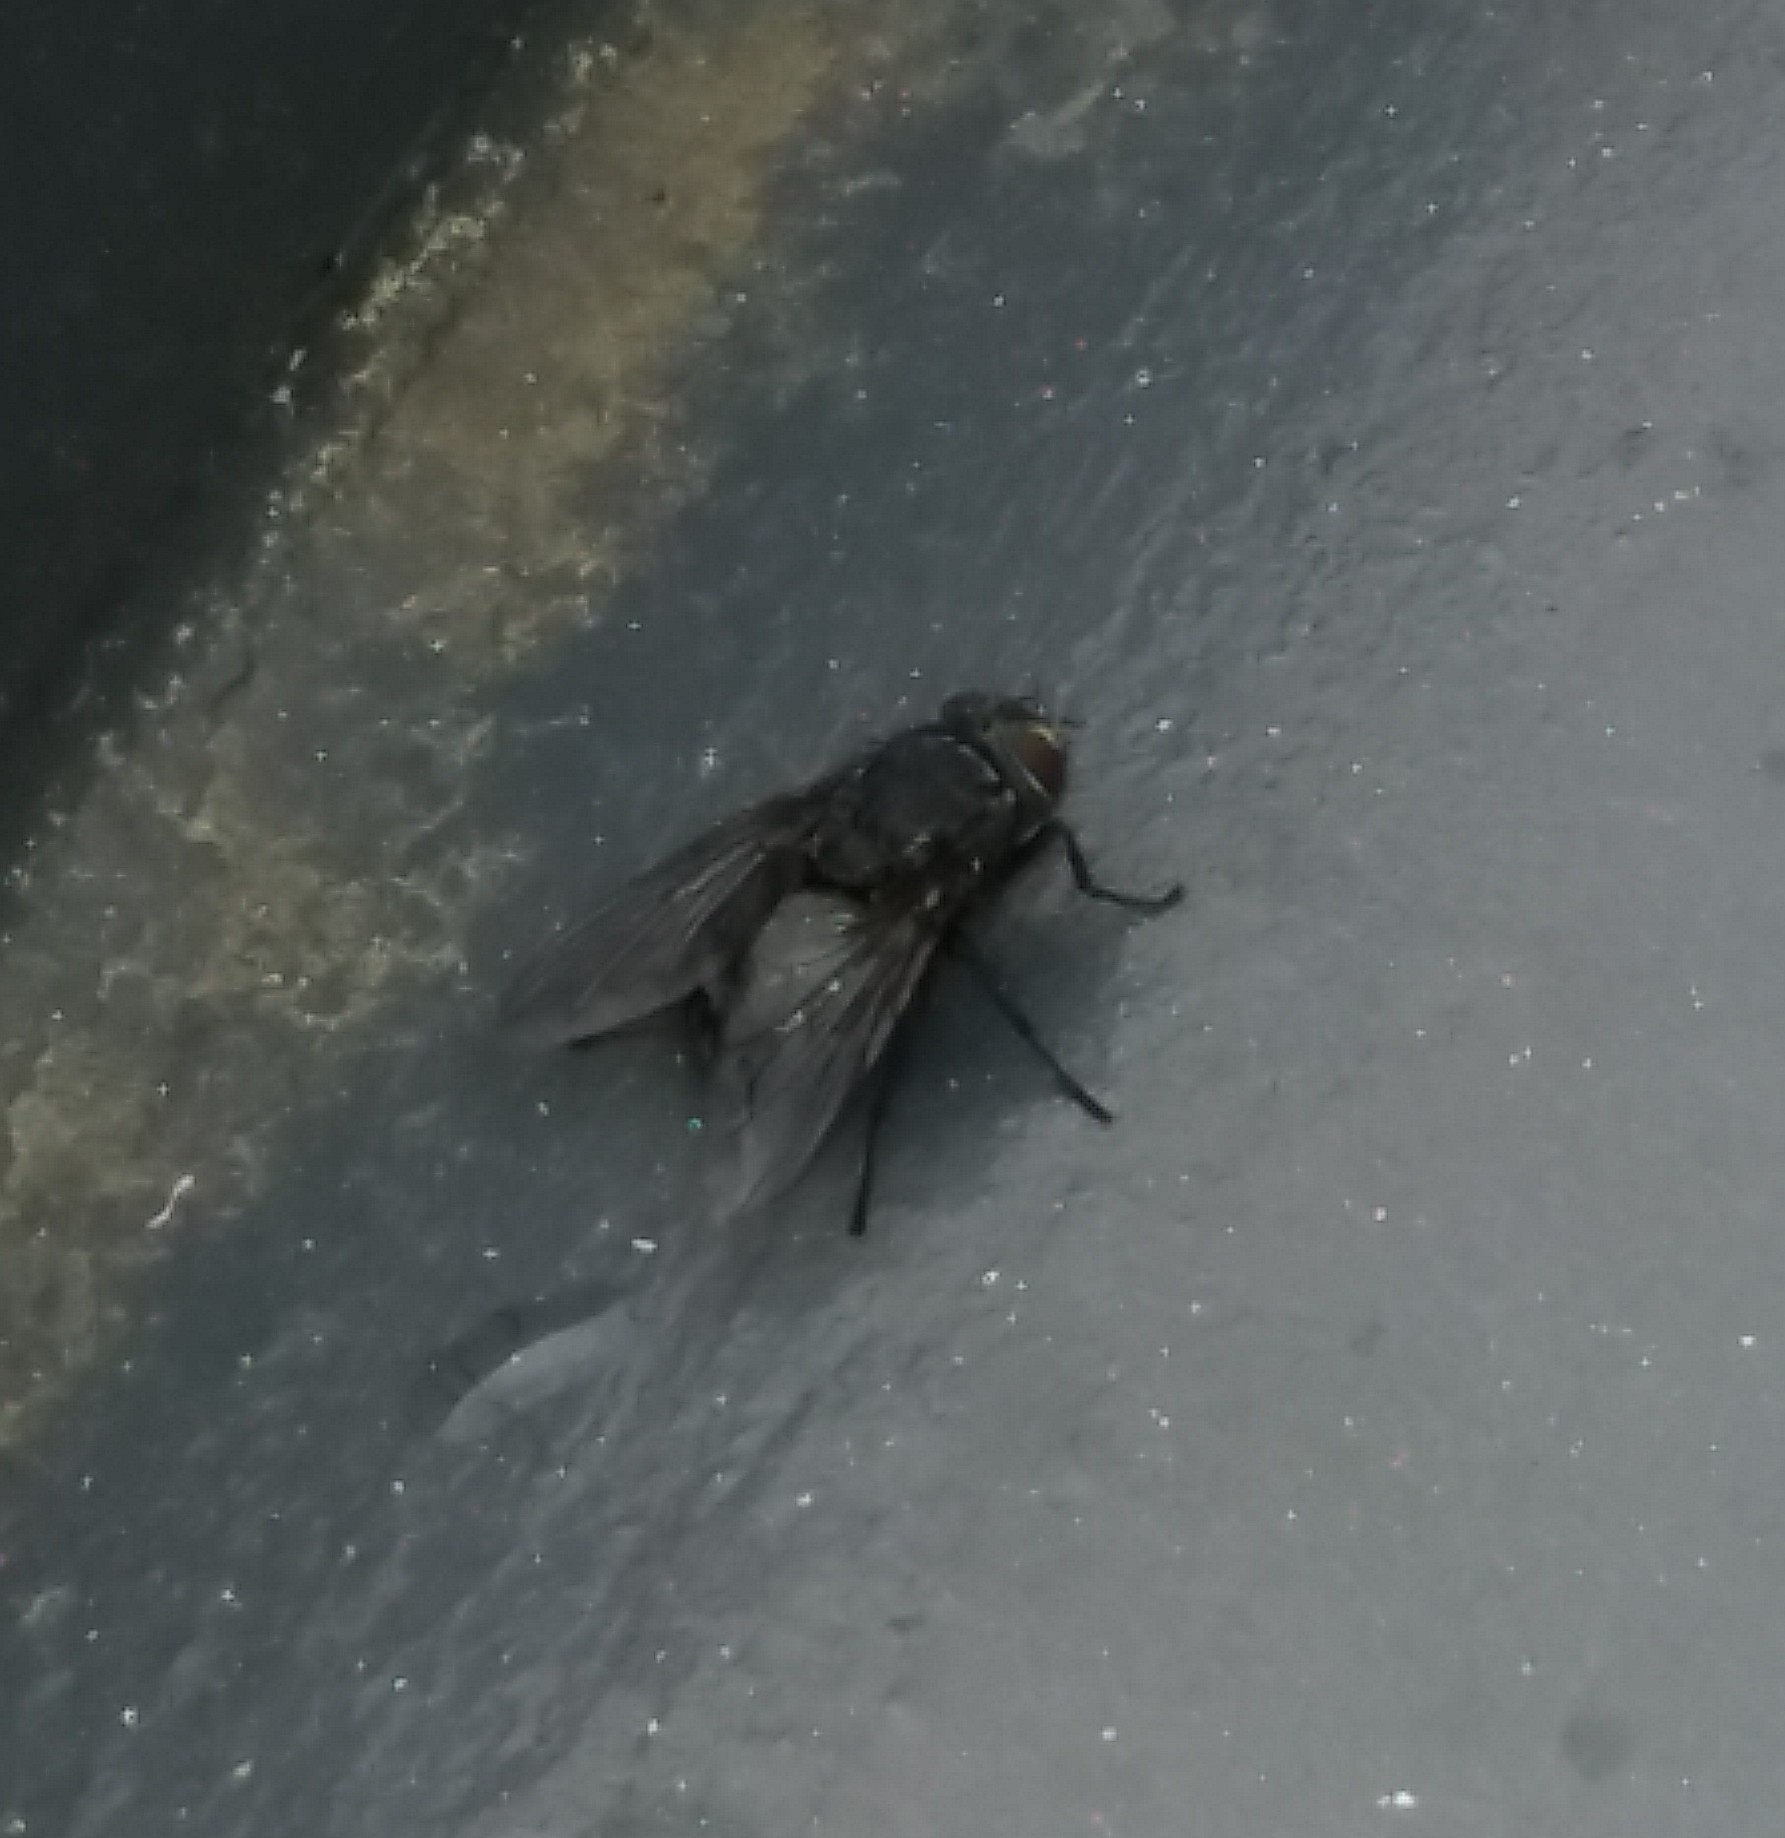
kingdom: Animalia
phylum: Arthropoda
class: Insecta
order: Diptera
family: Calliphoridae
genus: Calliphora
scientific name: Calliphora vicina
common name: Common blow flie
